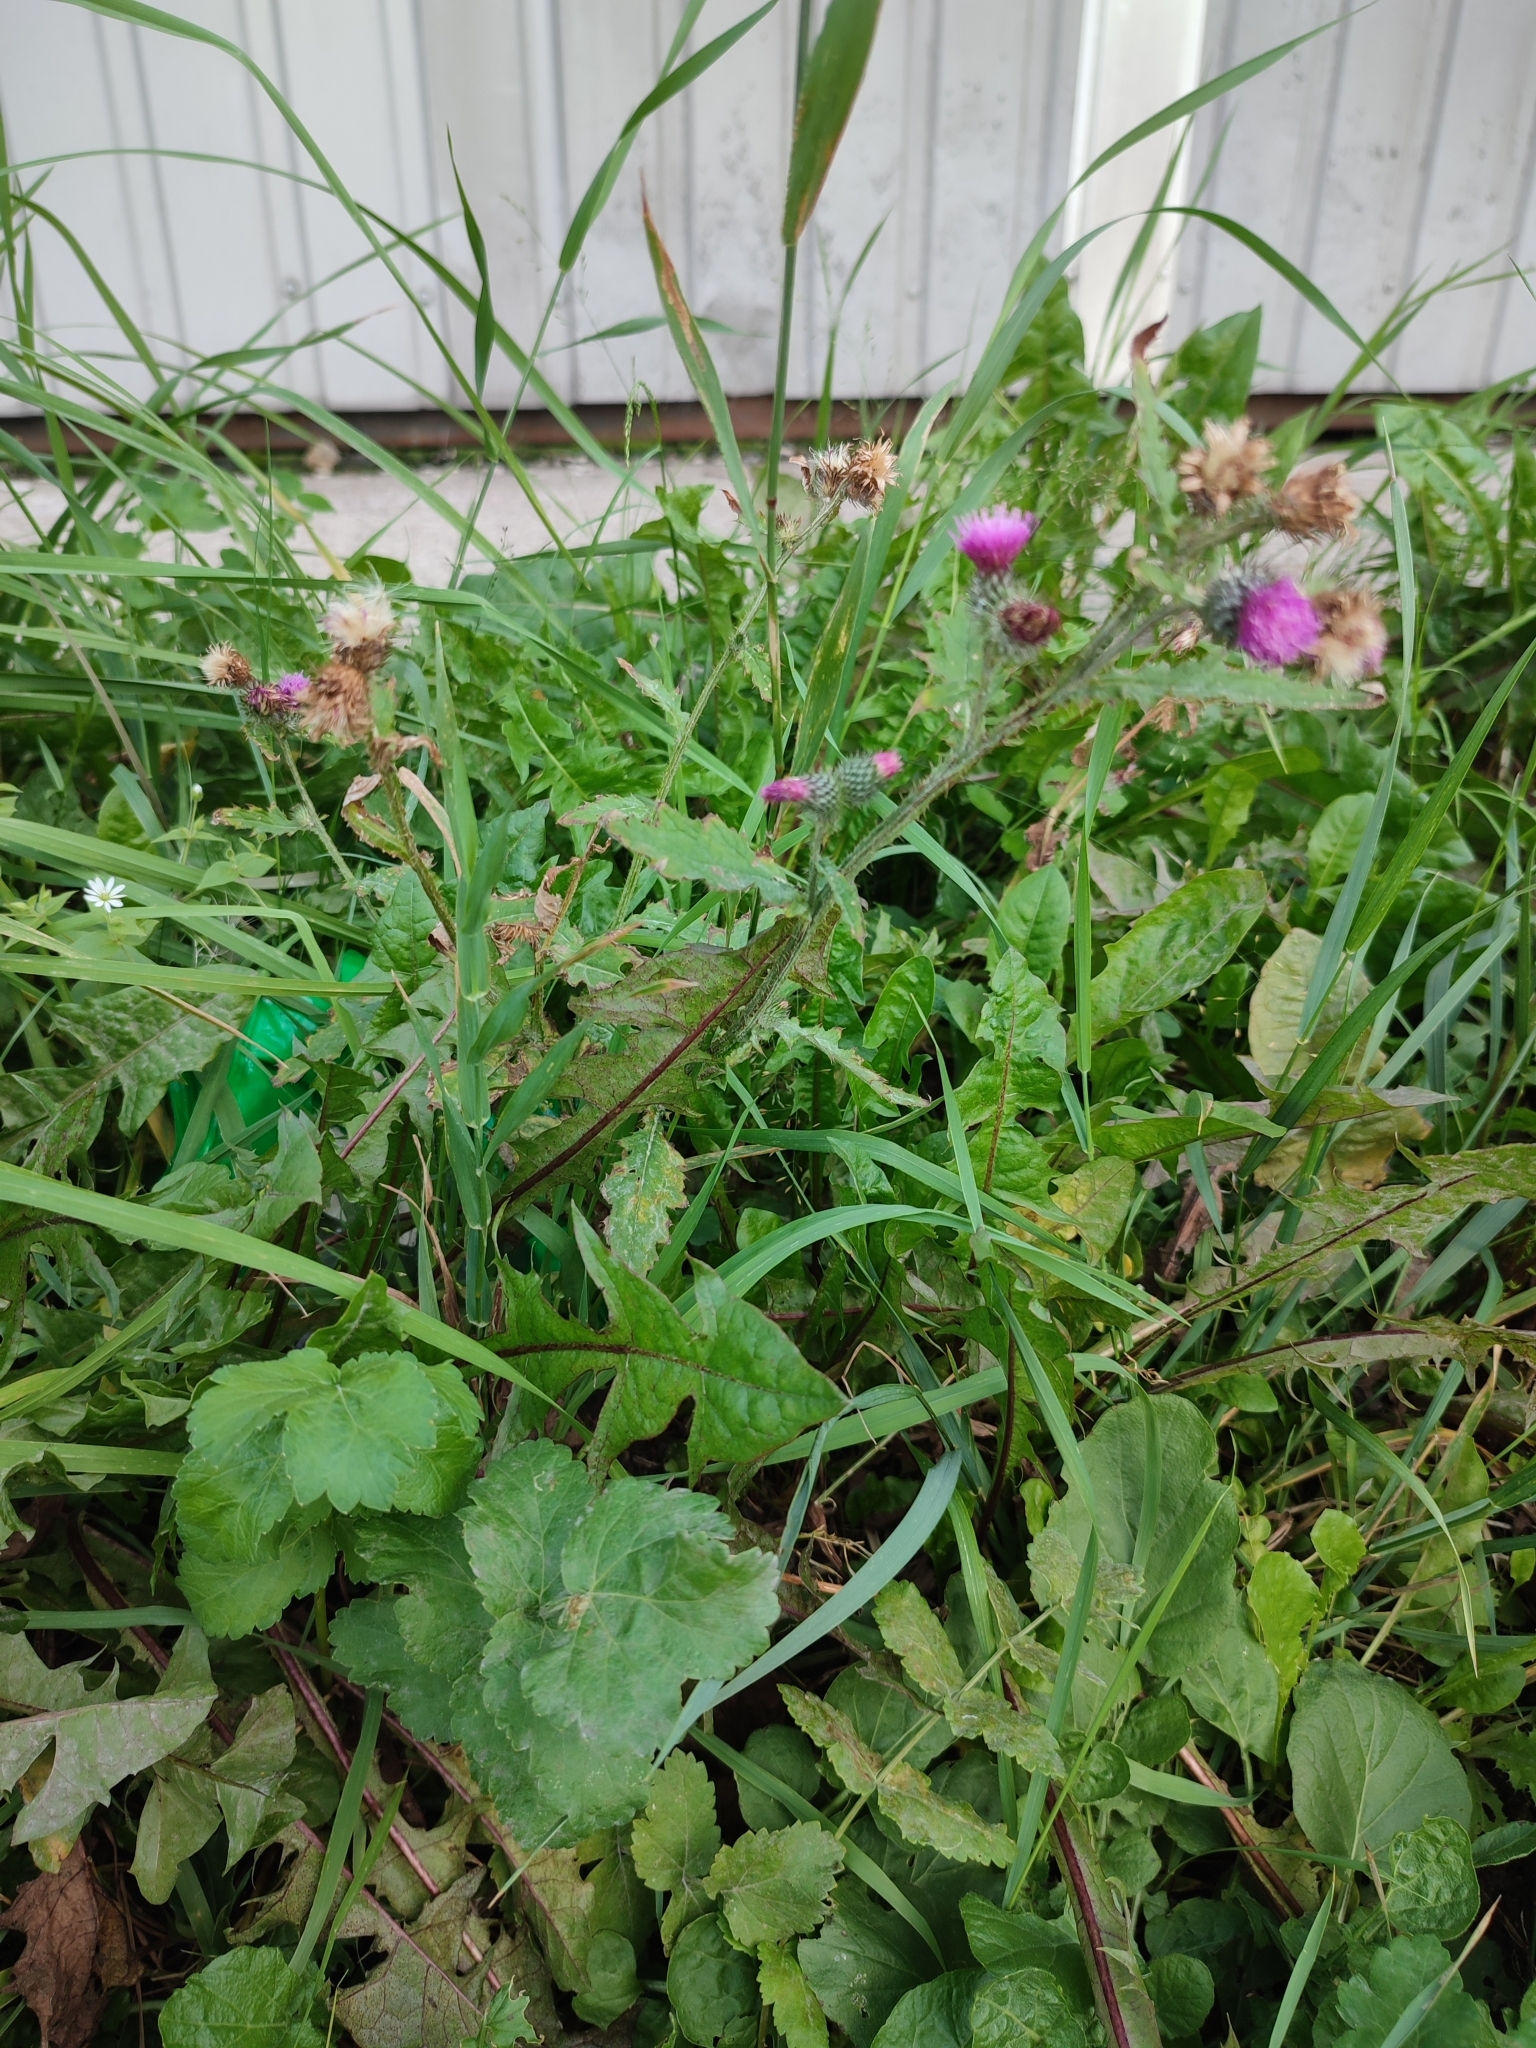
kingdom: Plantae
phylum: Tracheophyta
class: Magnoliopsida
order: Asterales
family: Asteraceae
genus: Carduus
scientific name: Carduus crispus
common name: Welted thistle
